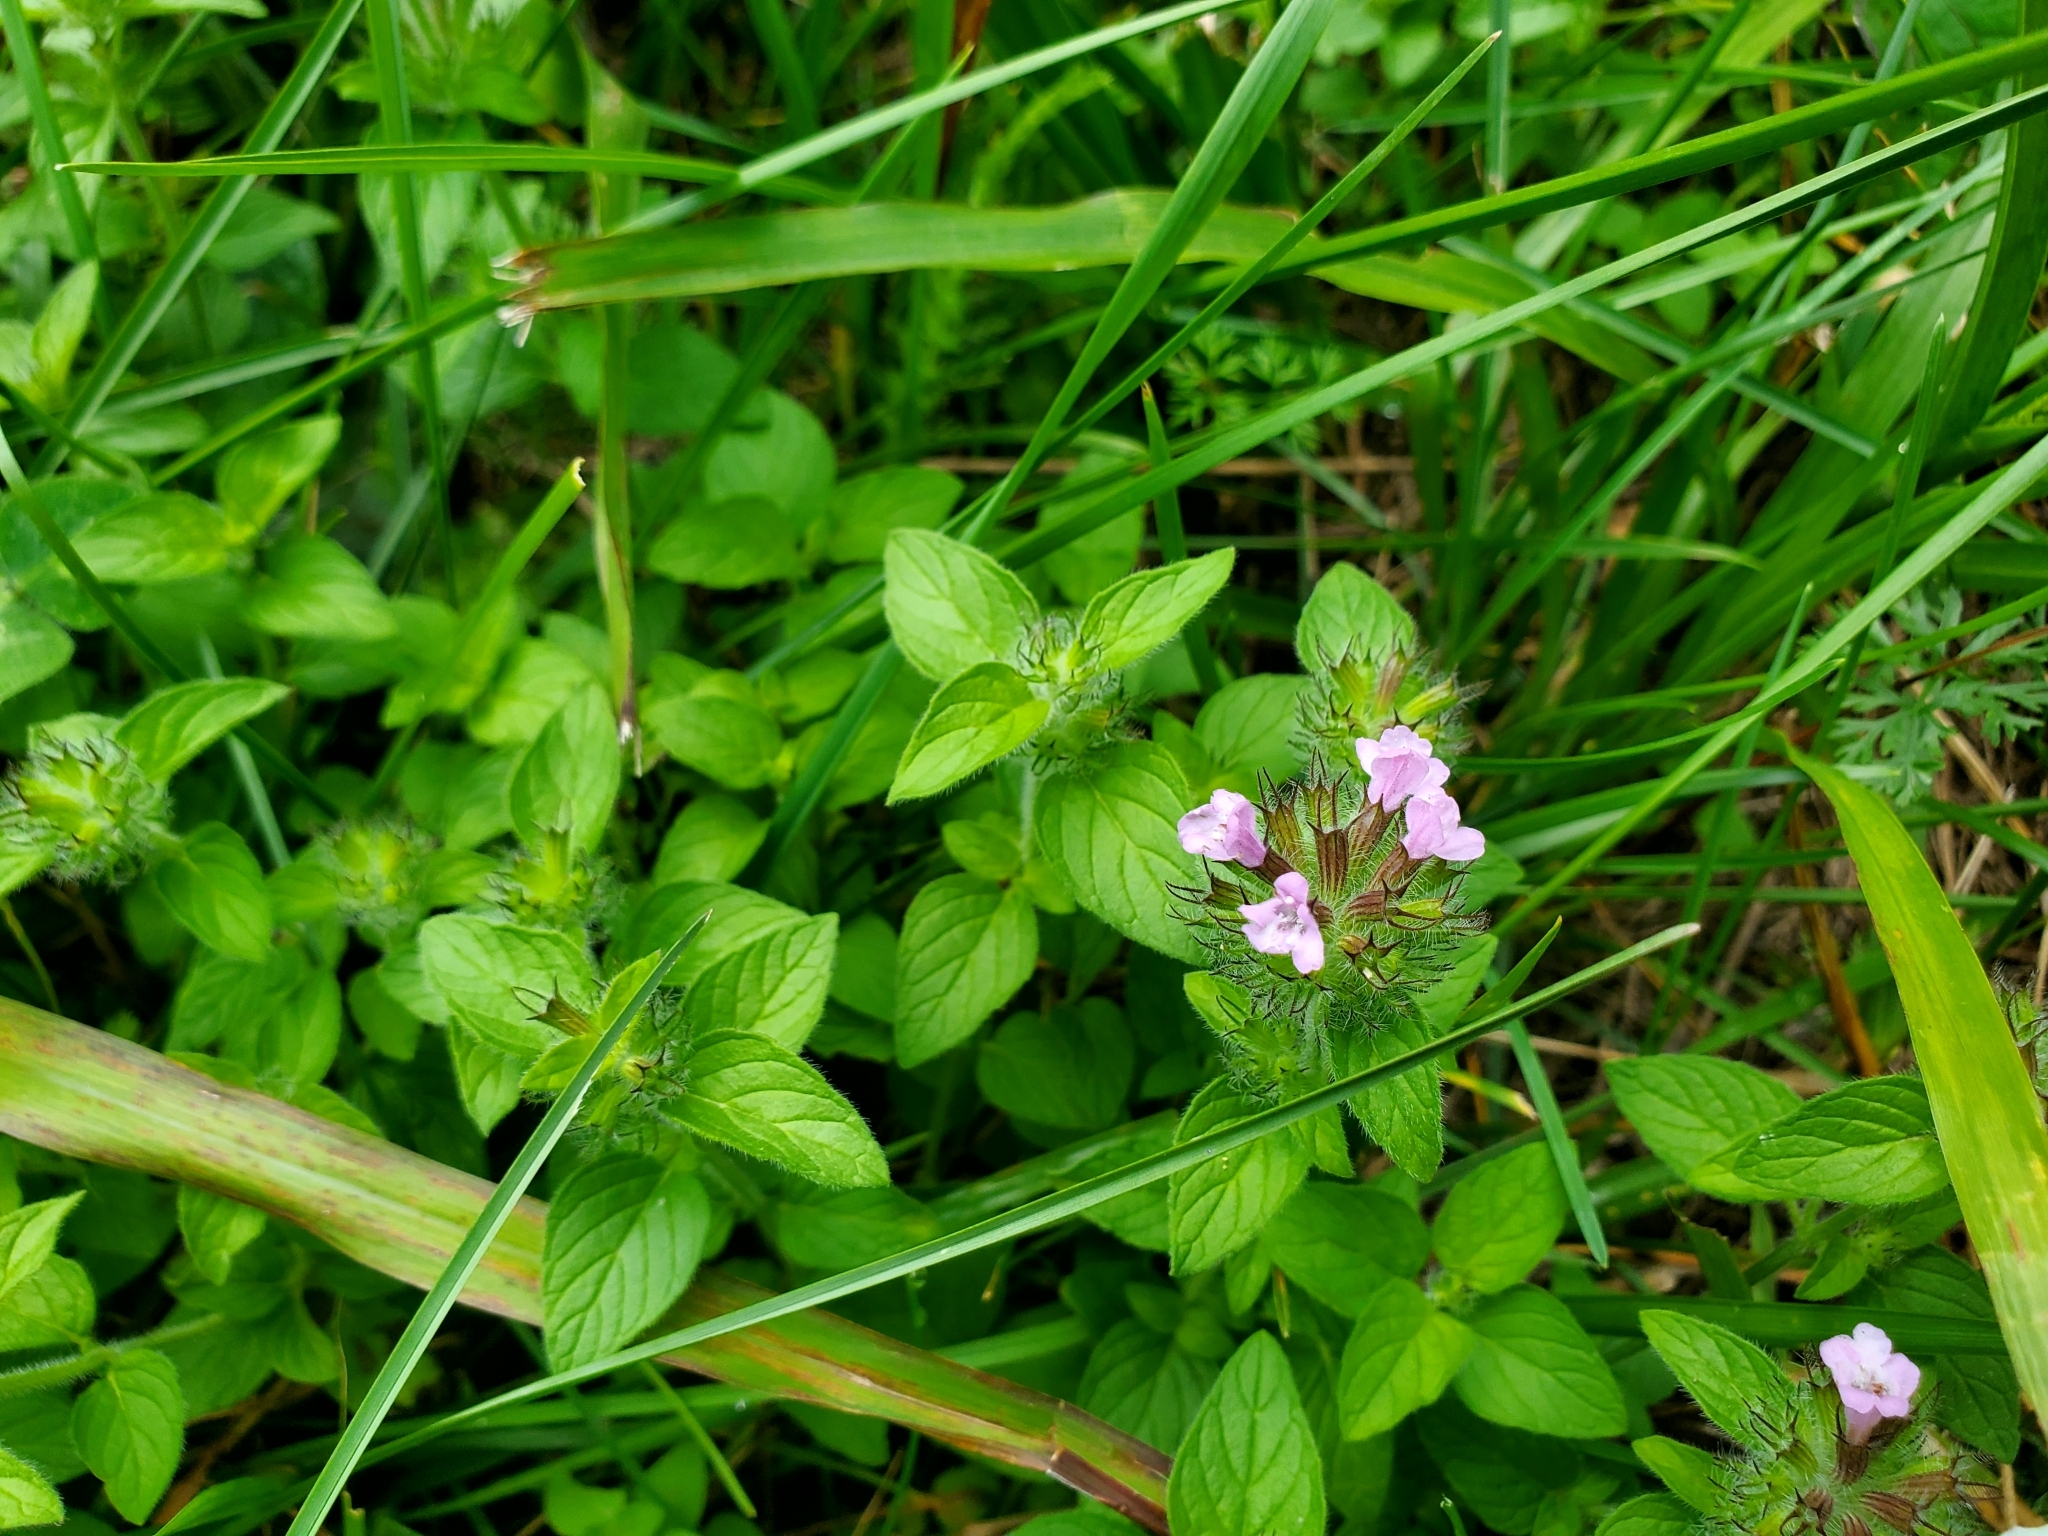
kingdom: Plantae
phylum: Tracheophyta
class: Magnoliopsida
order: Lamiales
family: Lamiaceae
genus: Clinopodium
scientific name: Clinopodium vulgare
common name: Wild basil
